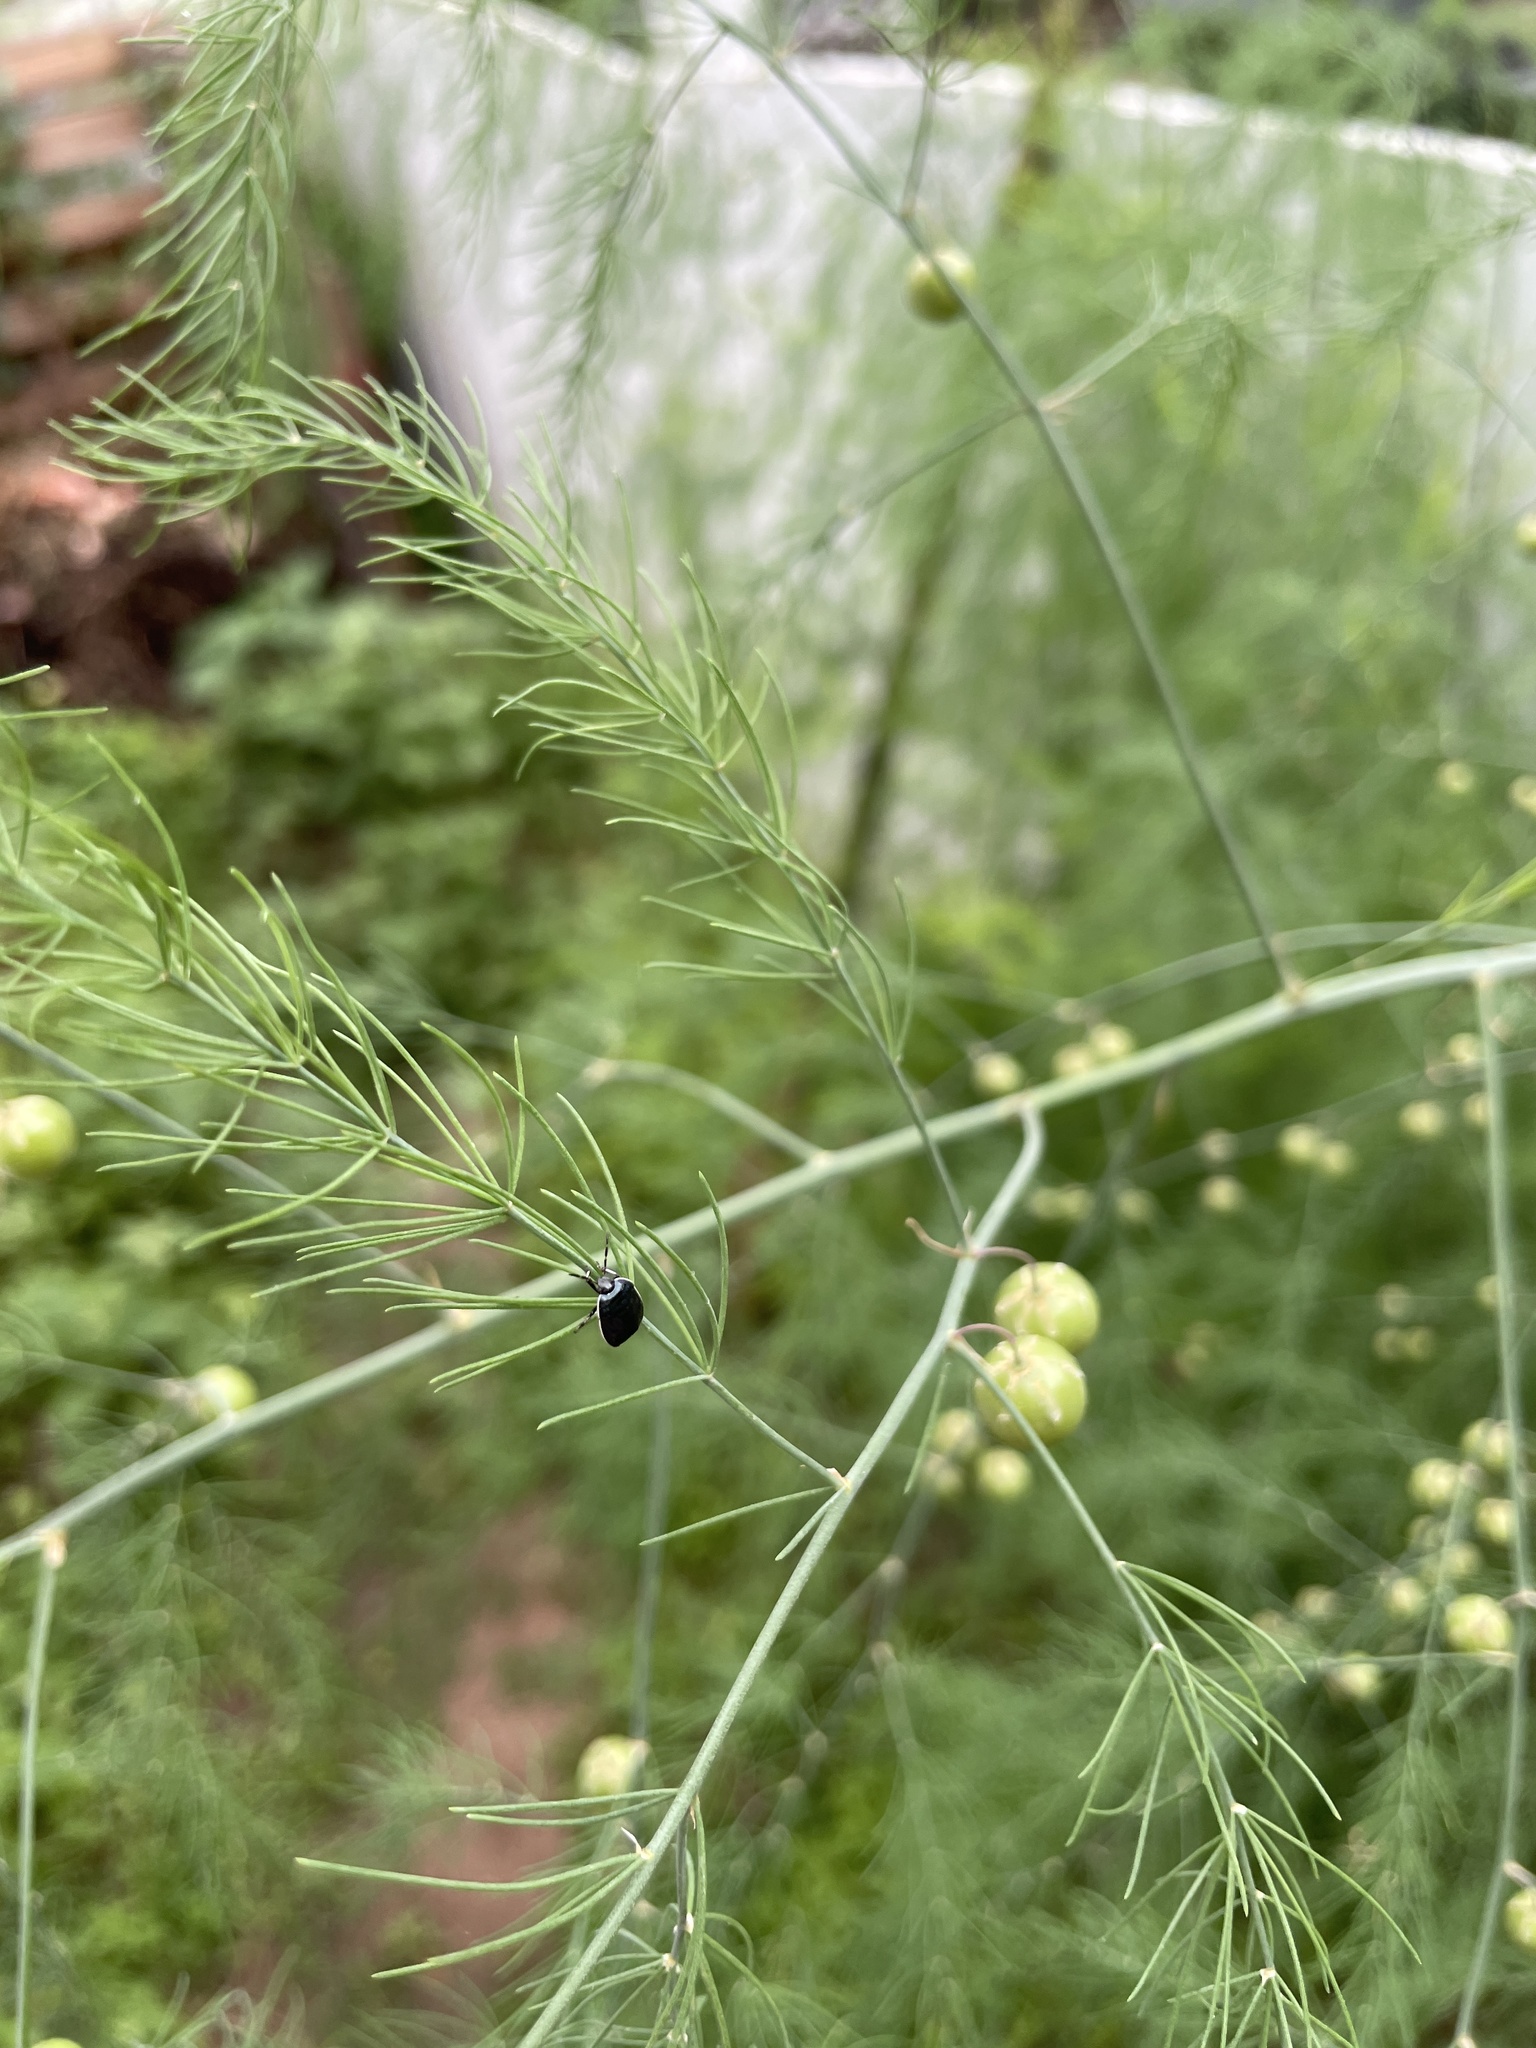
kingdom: Animalia
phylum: Arthropoda
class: Insecta
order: Hemiptera
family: Cydnidae
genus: Sehirus
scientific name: Sehirus cinctus
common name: White-margined burrower bug
